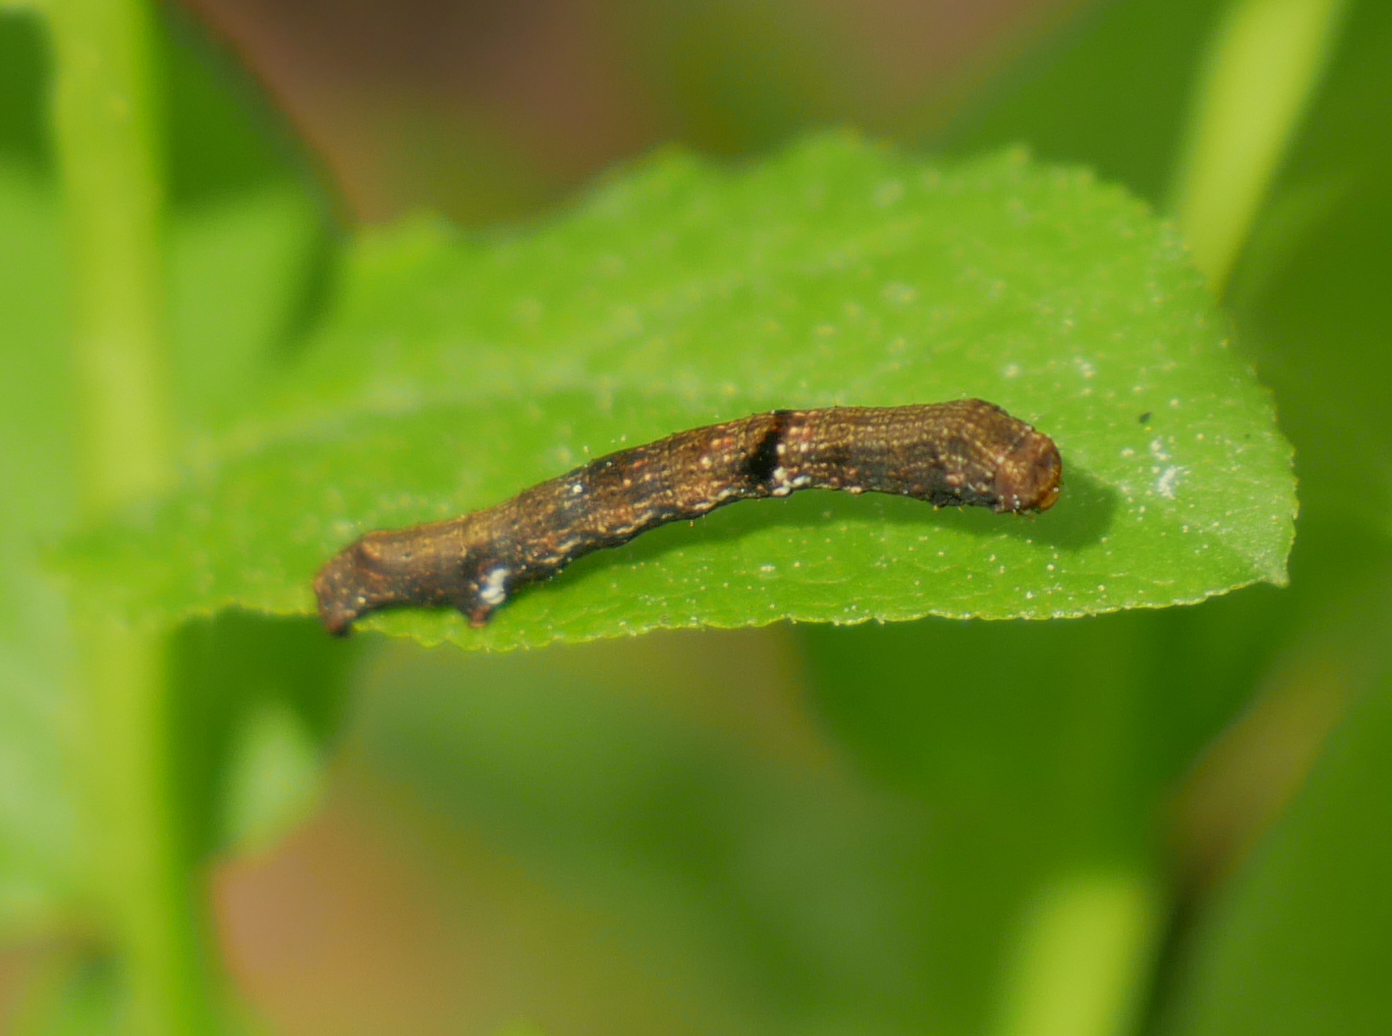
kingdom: Animalia
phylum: Arthropoda
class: Insecta
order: Lepidoptera
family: Geometridae
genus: Ectropis
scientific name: Ectropis crepuscularia
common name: Engrailed
